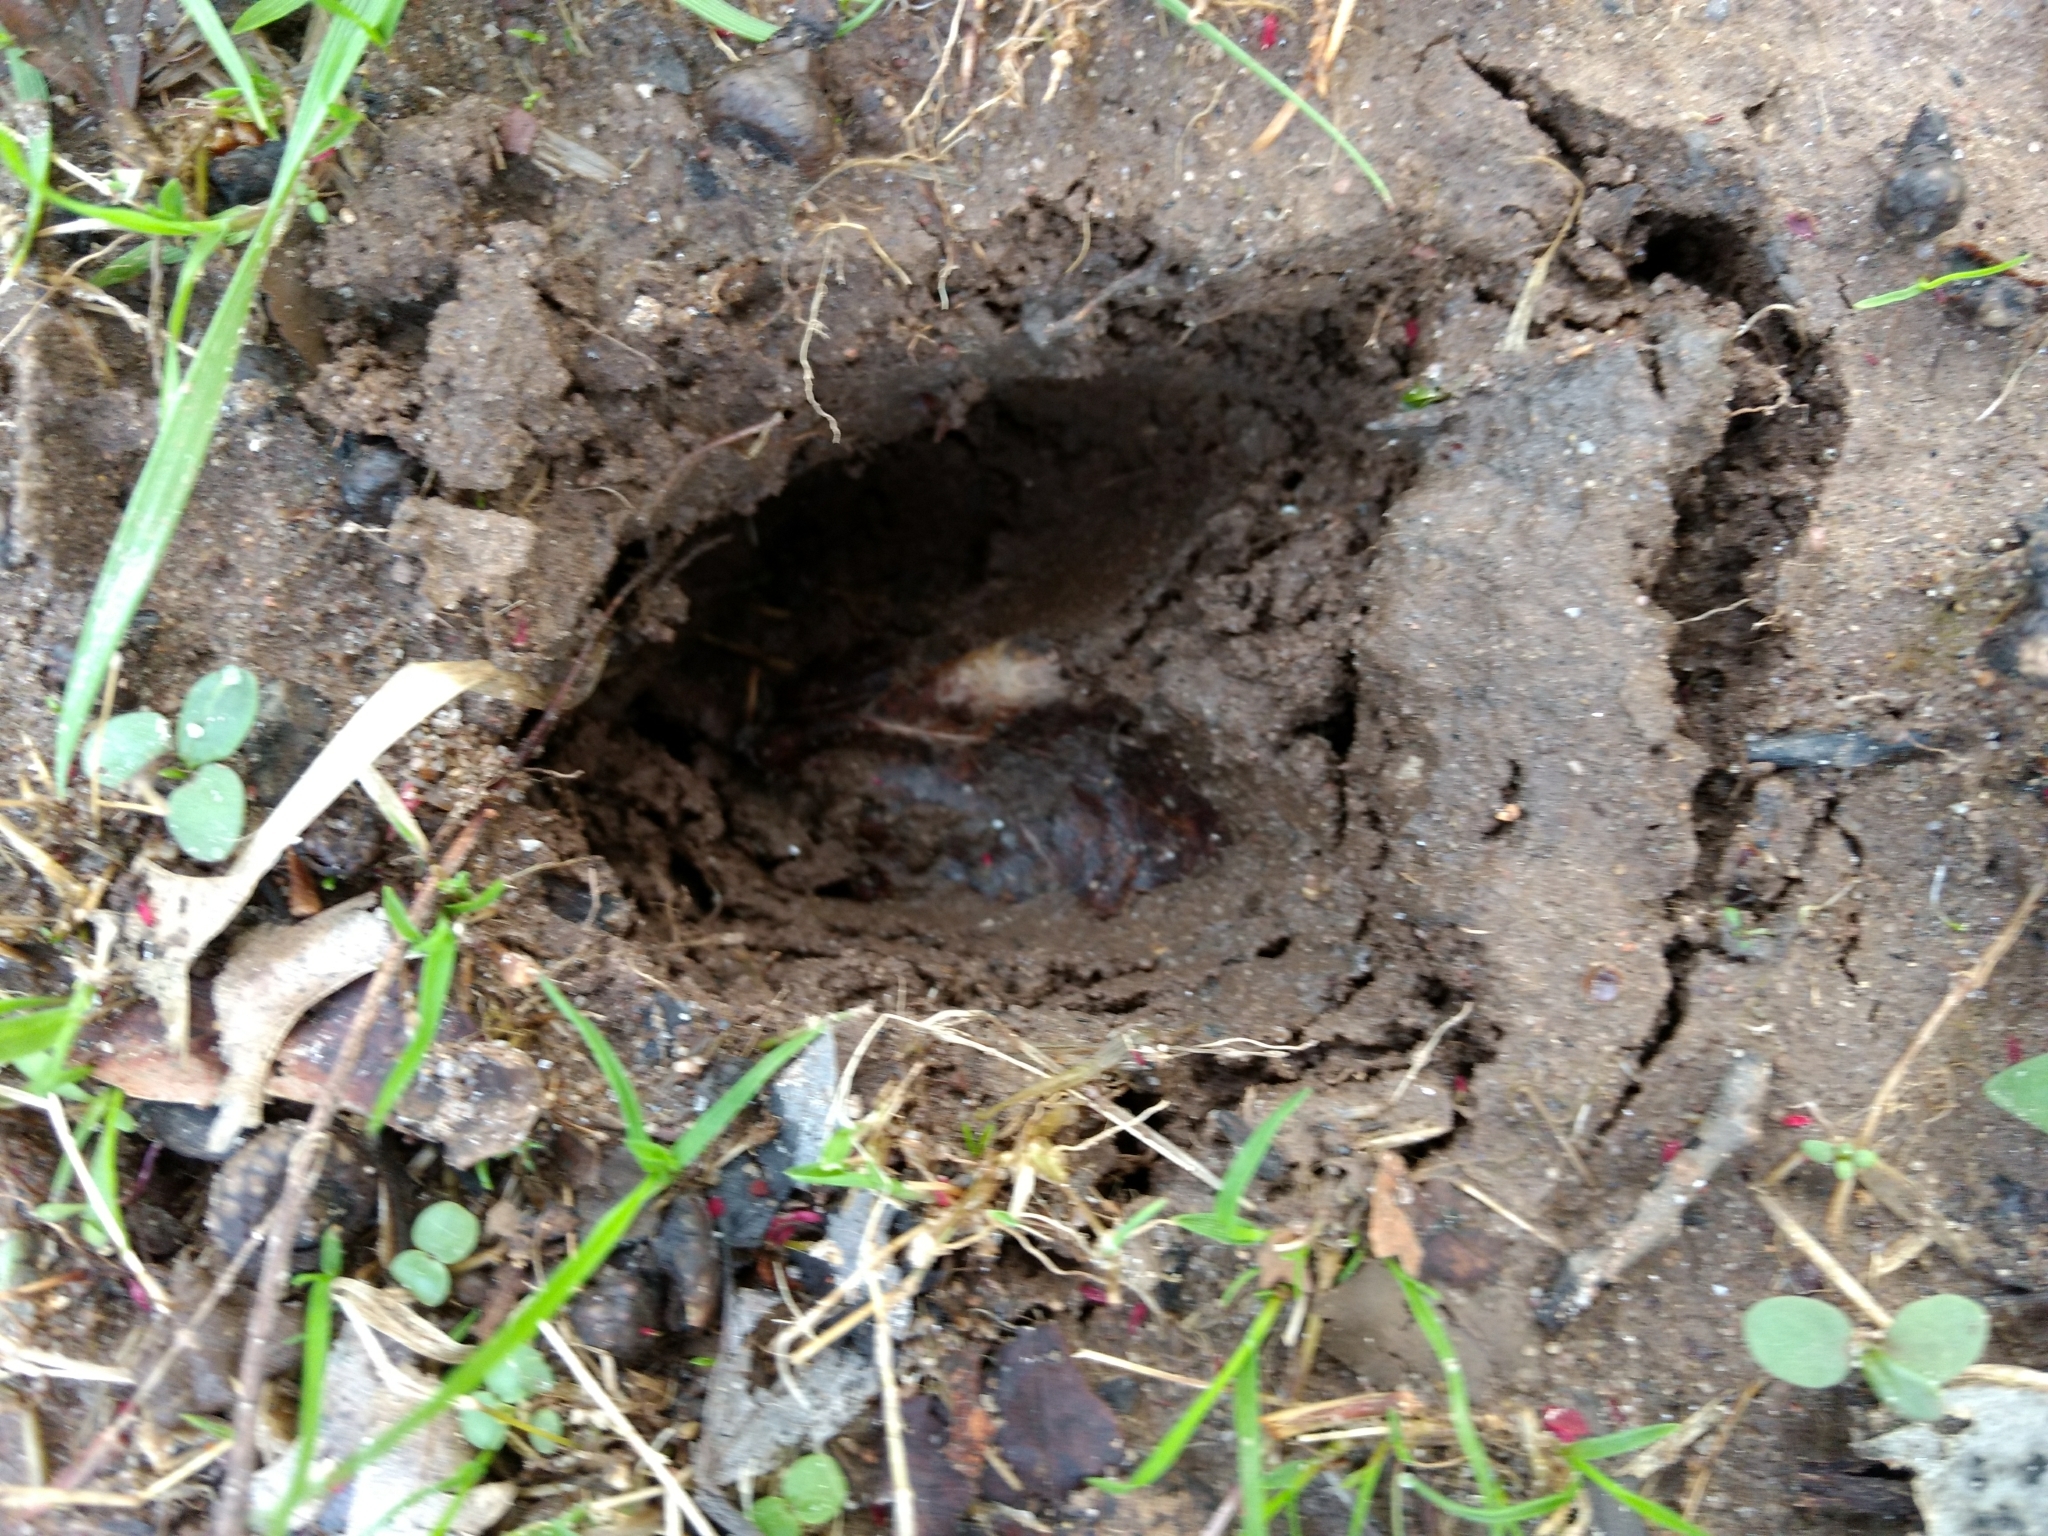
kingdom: Animalia
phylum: Chordata
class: Mammalia
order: Artiodactyla
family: Cervidae
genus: Odocoileus
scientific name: Odocoileus virginianus
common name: White-tailed deer
